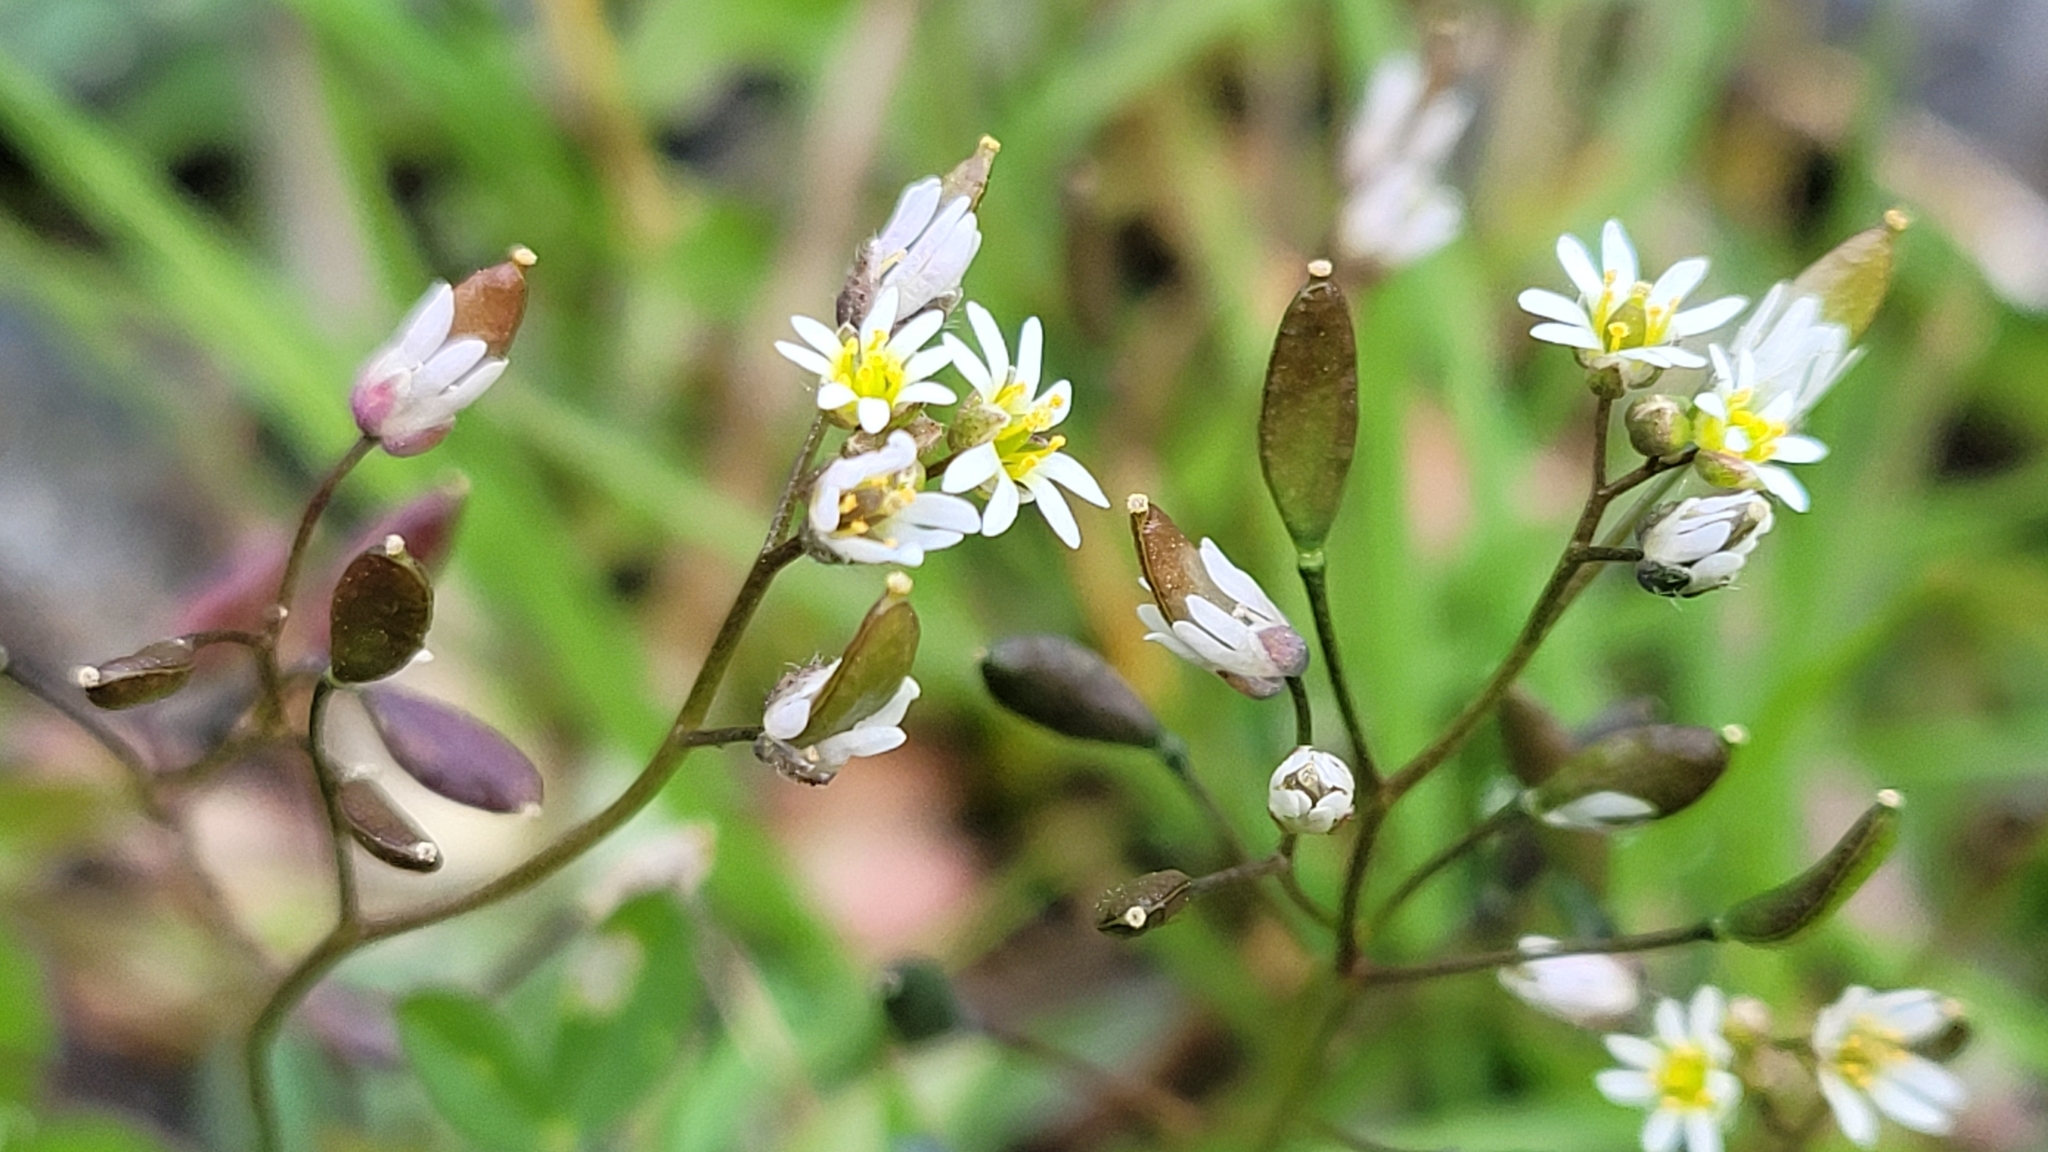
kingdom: Plantae
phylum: Tracheophyta
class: Magnoliopsida
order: Brassicales
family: Brassicaceae
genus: Draba
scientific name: Draba verna
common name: Spring draba
